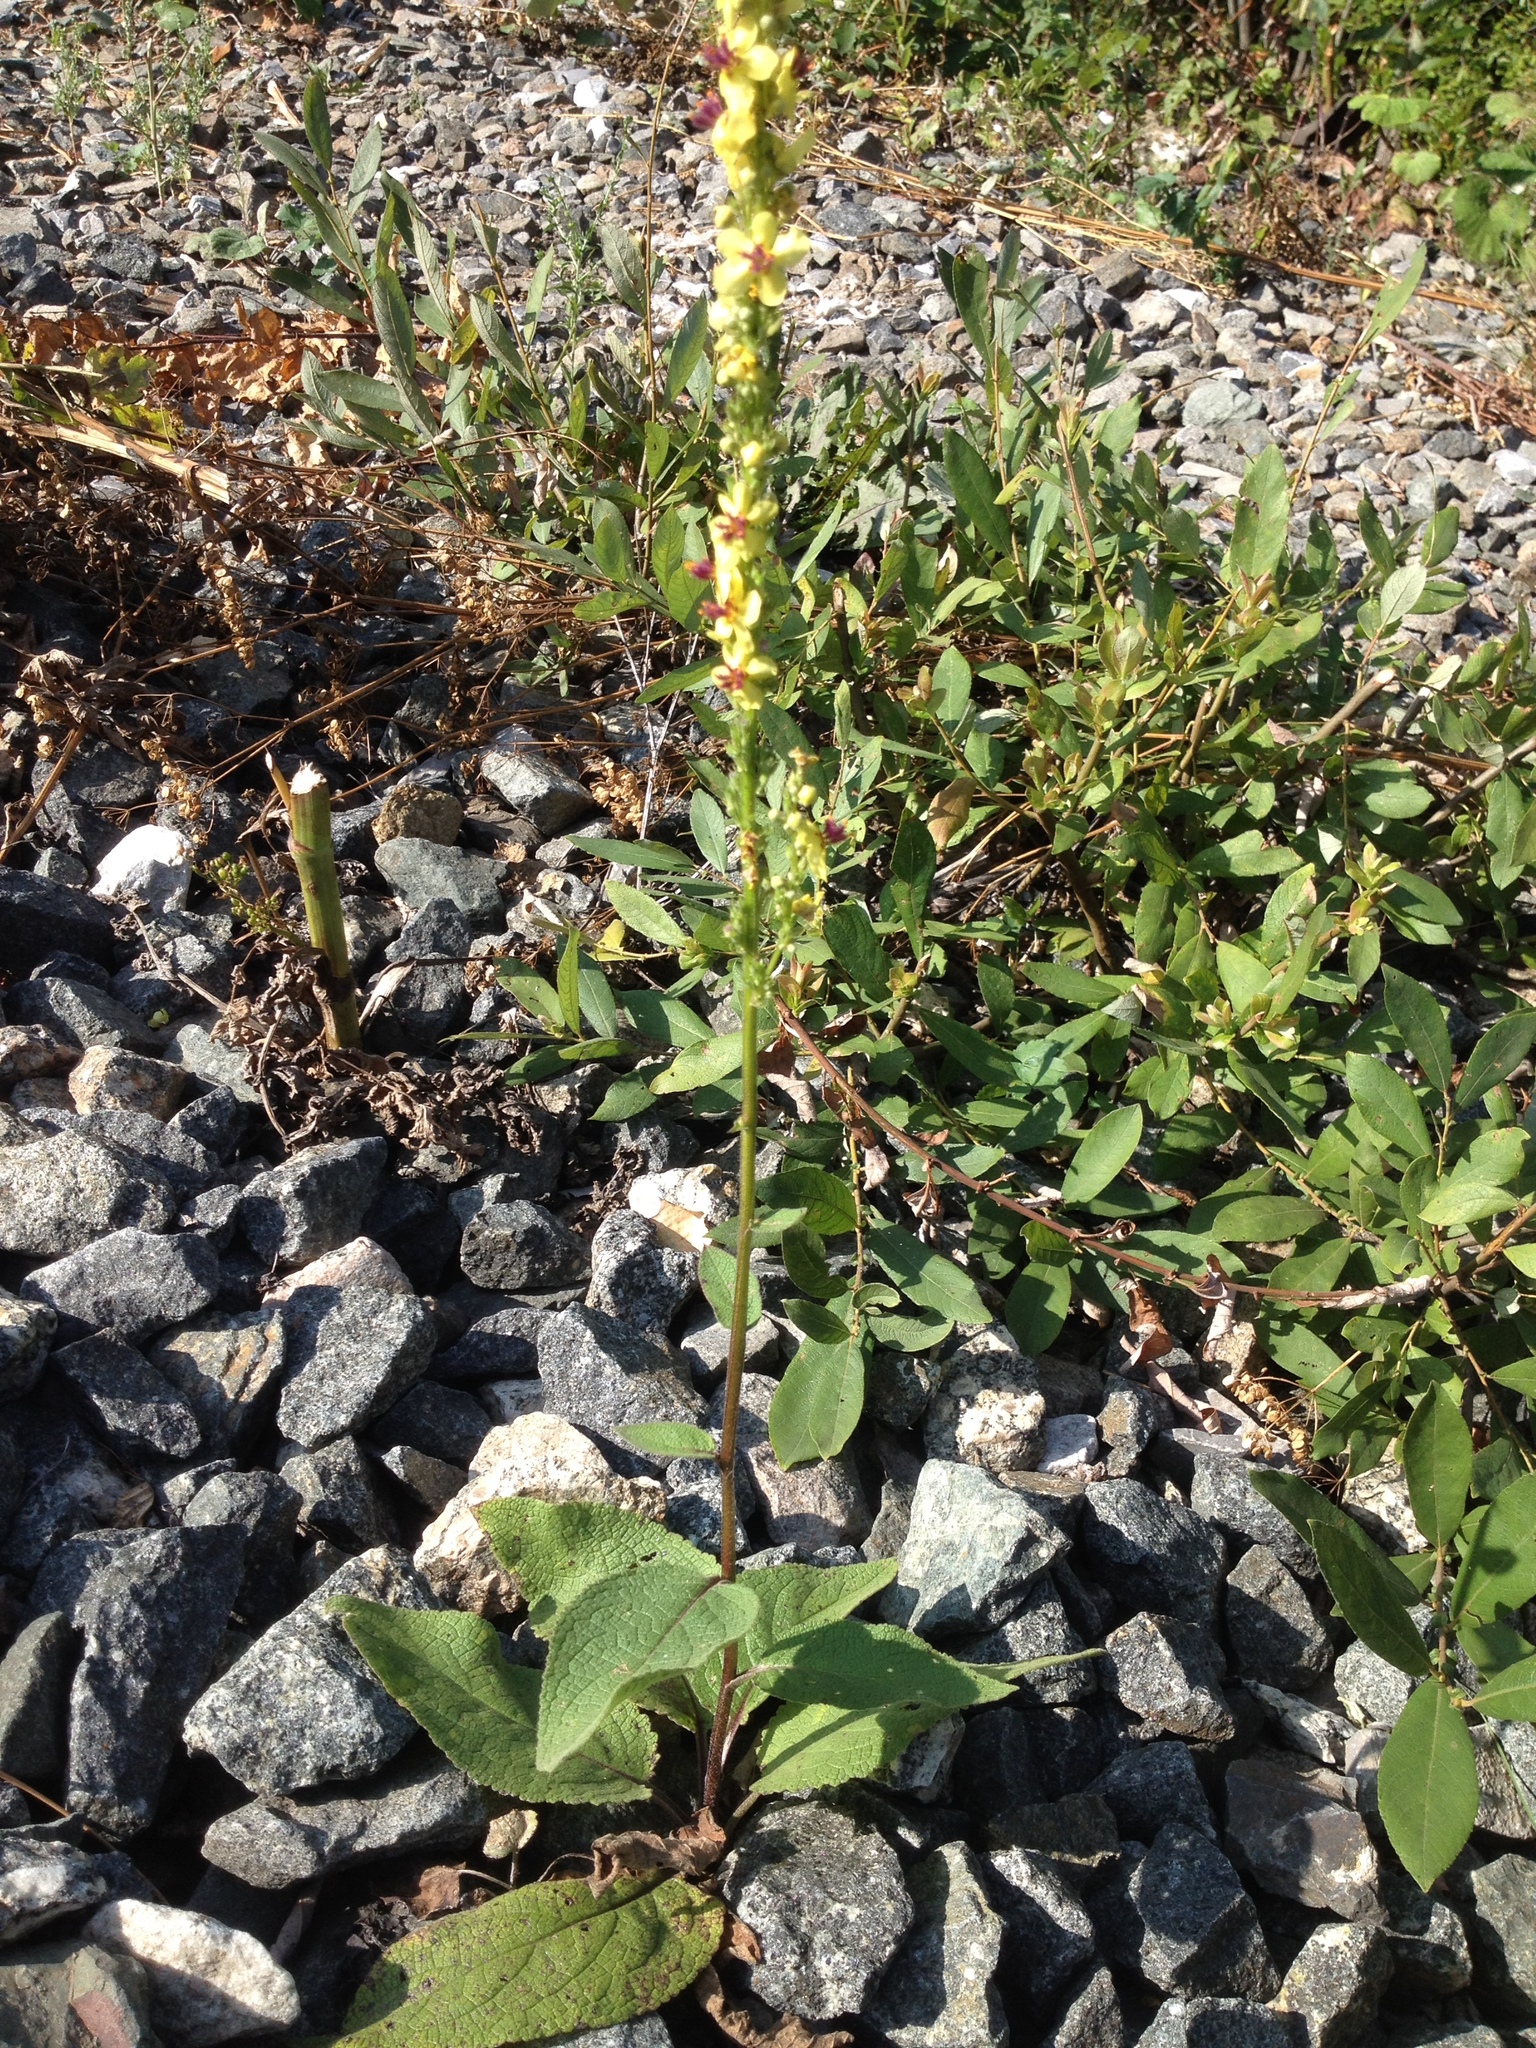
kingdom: Plantae
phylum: Tracheophyta
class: Magnoliopsida
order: Lamiales
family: Scrophulariaceae
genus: Verbascum
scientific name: Verbascum nigrum
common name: Dark mullein
